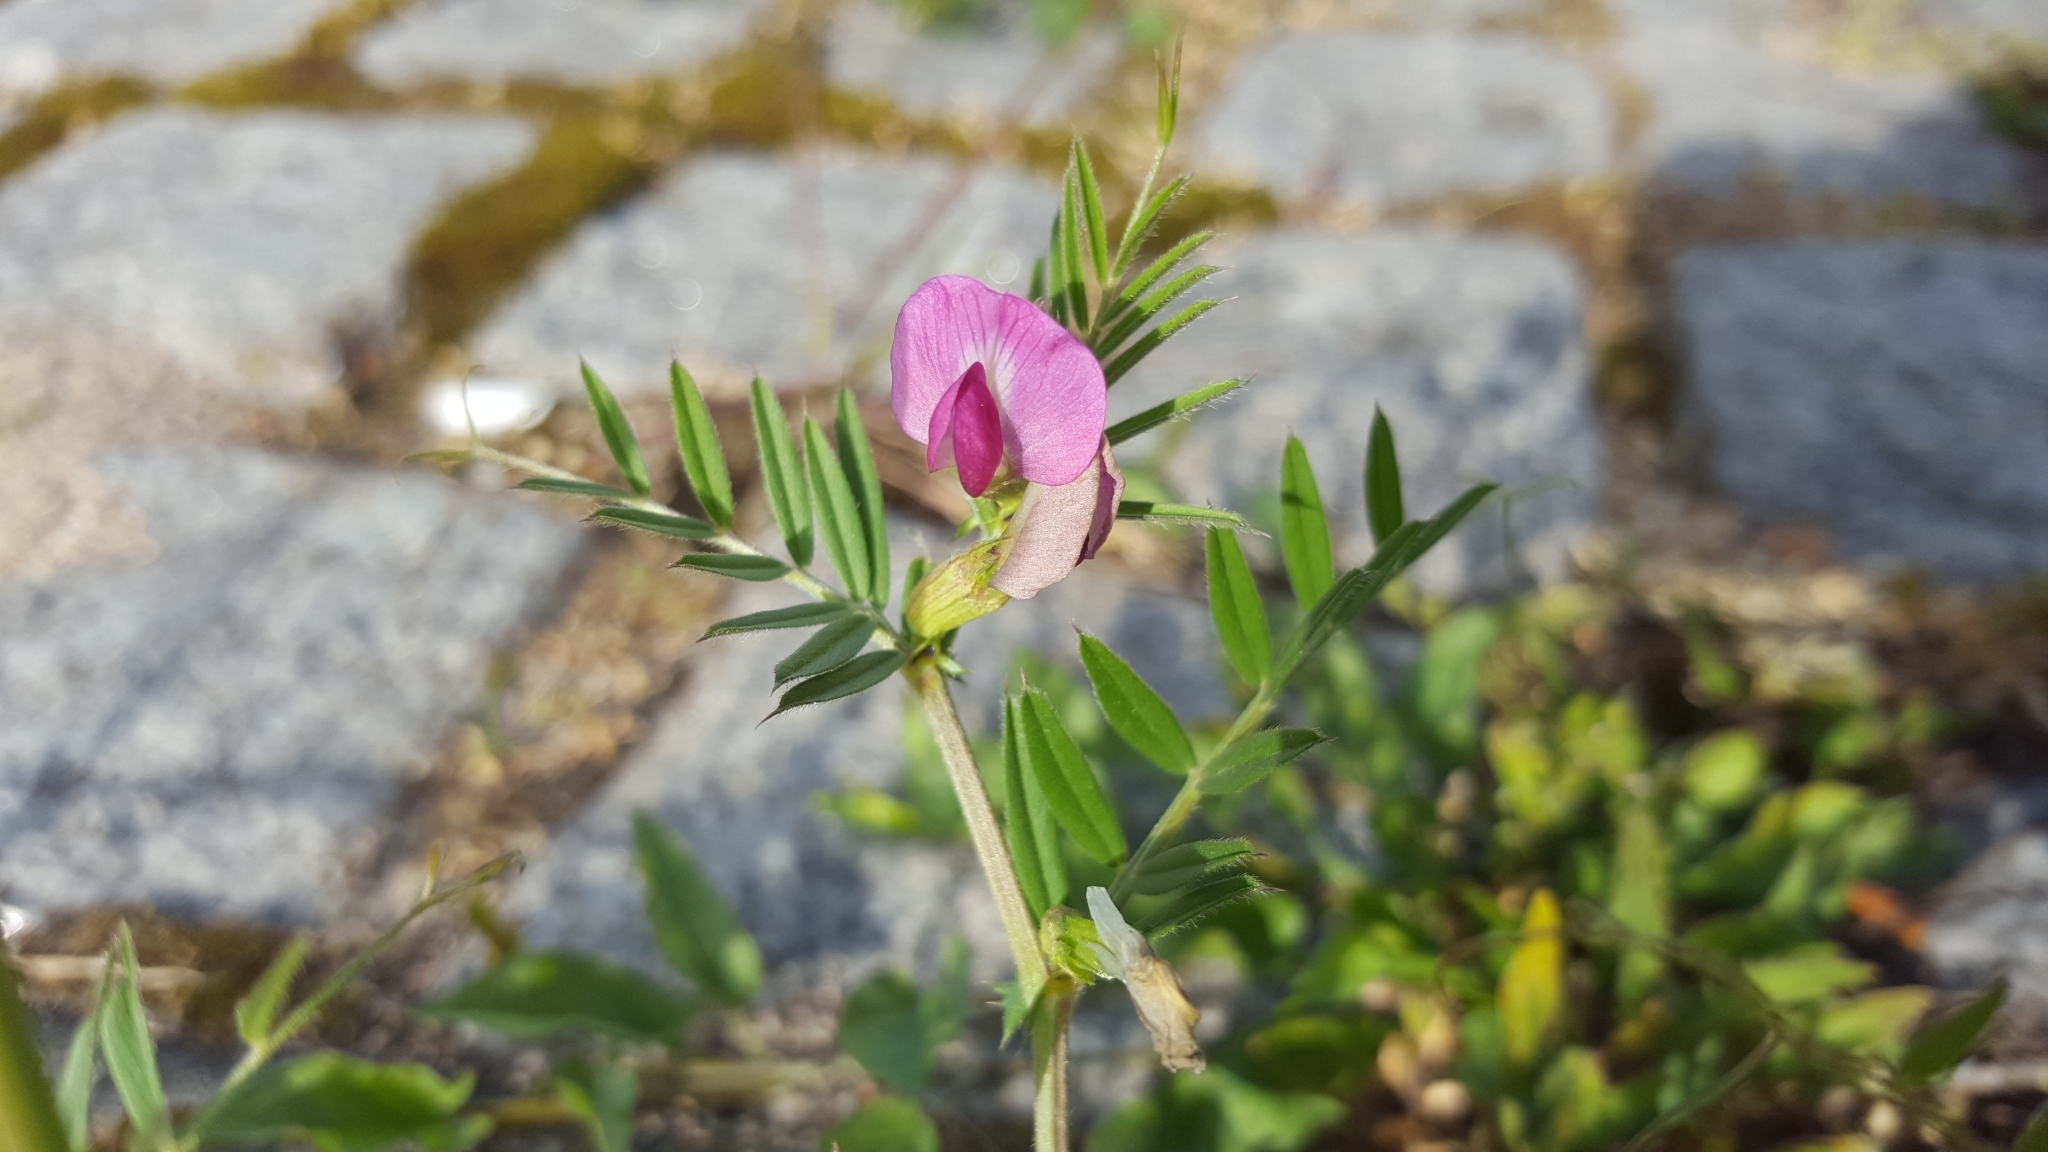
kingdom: Plantae
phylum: Tracheophyta
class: Magnoliopsida
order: Fabales
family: Fabaceae
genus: Vicia
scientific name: Vicia sativa
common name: Garden vetch
